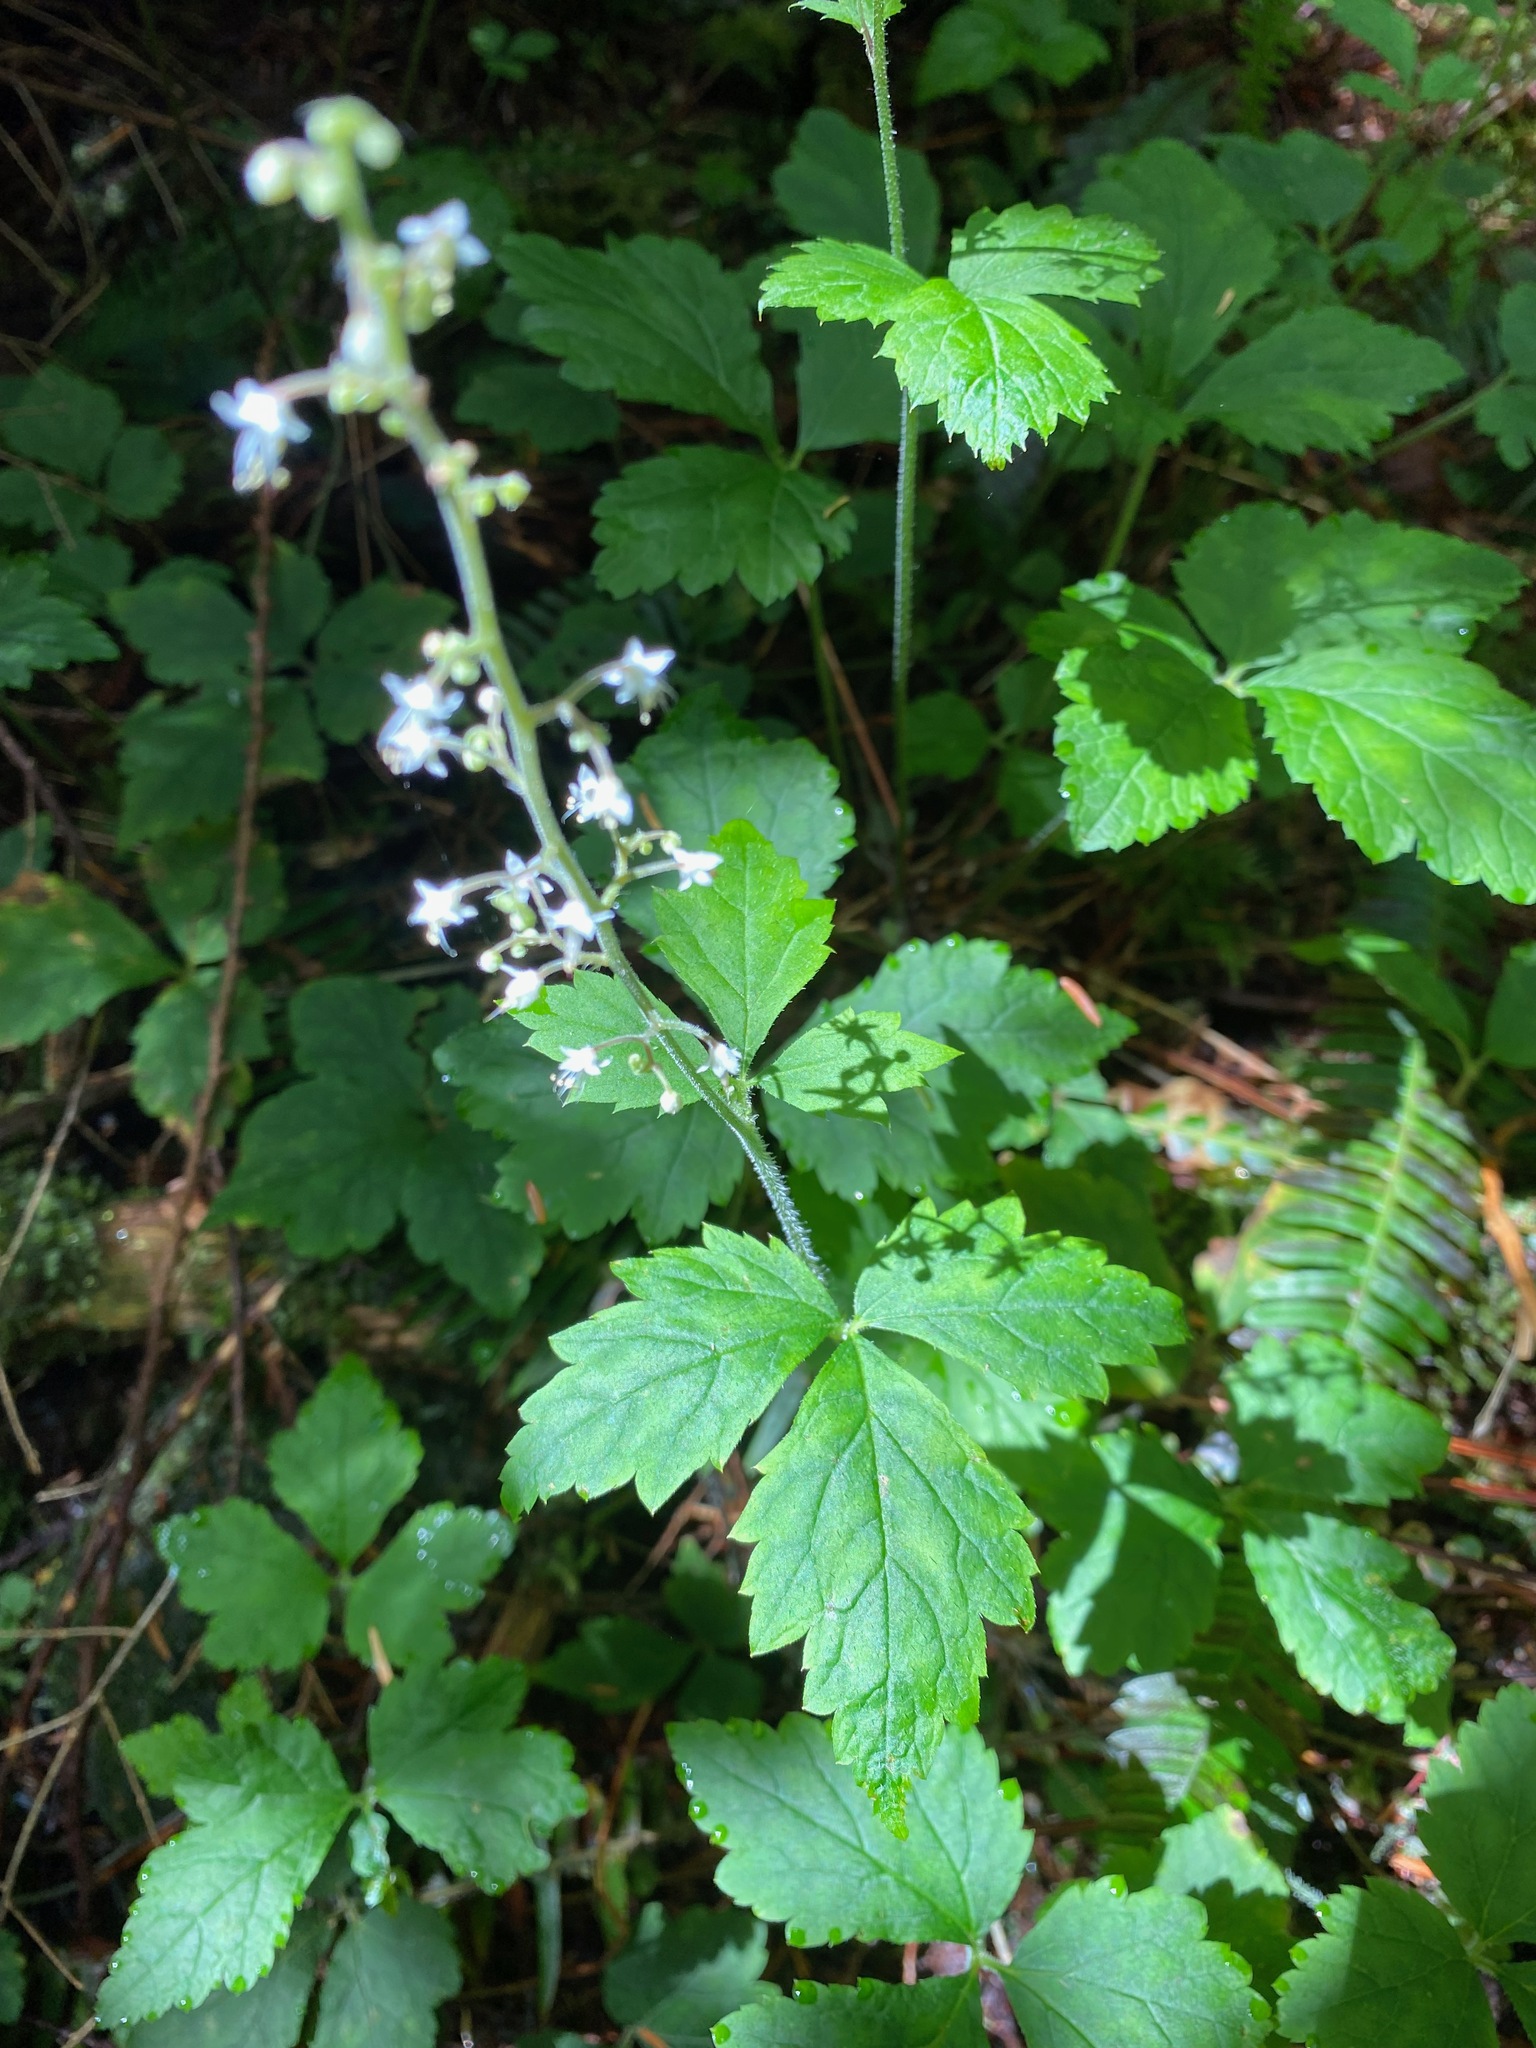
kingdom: Plantae
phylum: Tracheophyta
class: Magnoliopsida
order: Saxifragales
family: Saxifragaceae
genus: Tiarella
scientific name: Tiarella trifoliata
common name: Sugar-scoop
